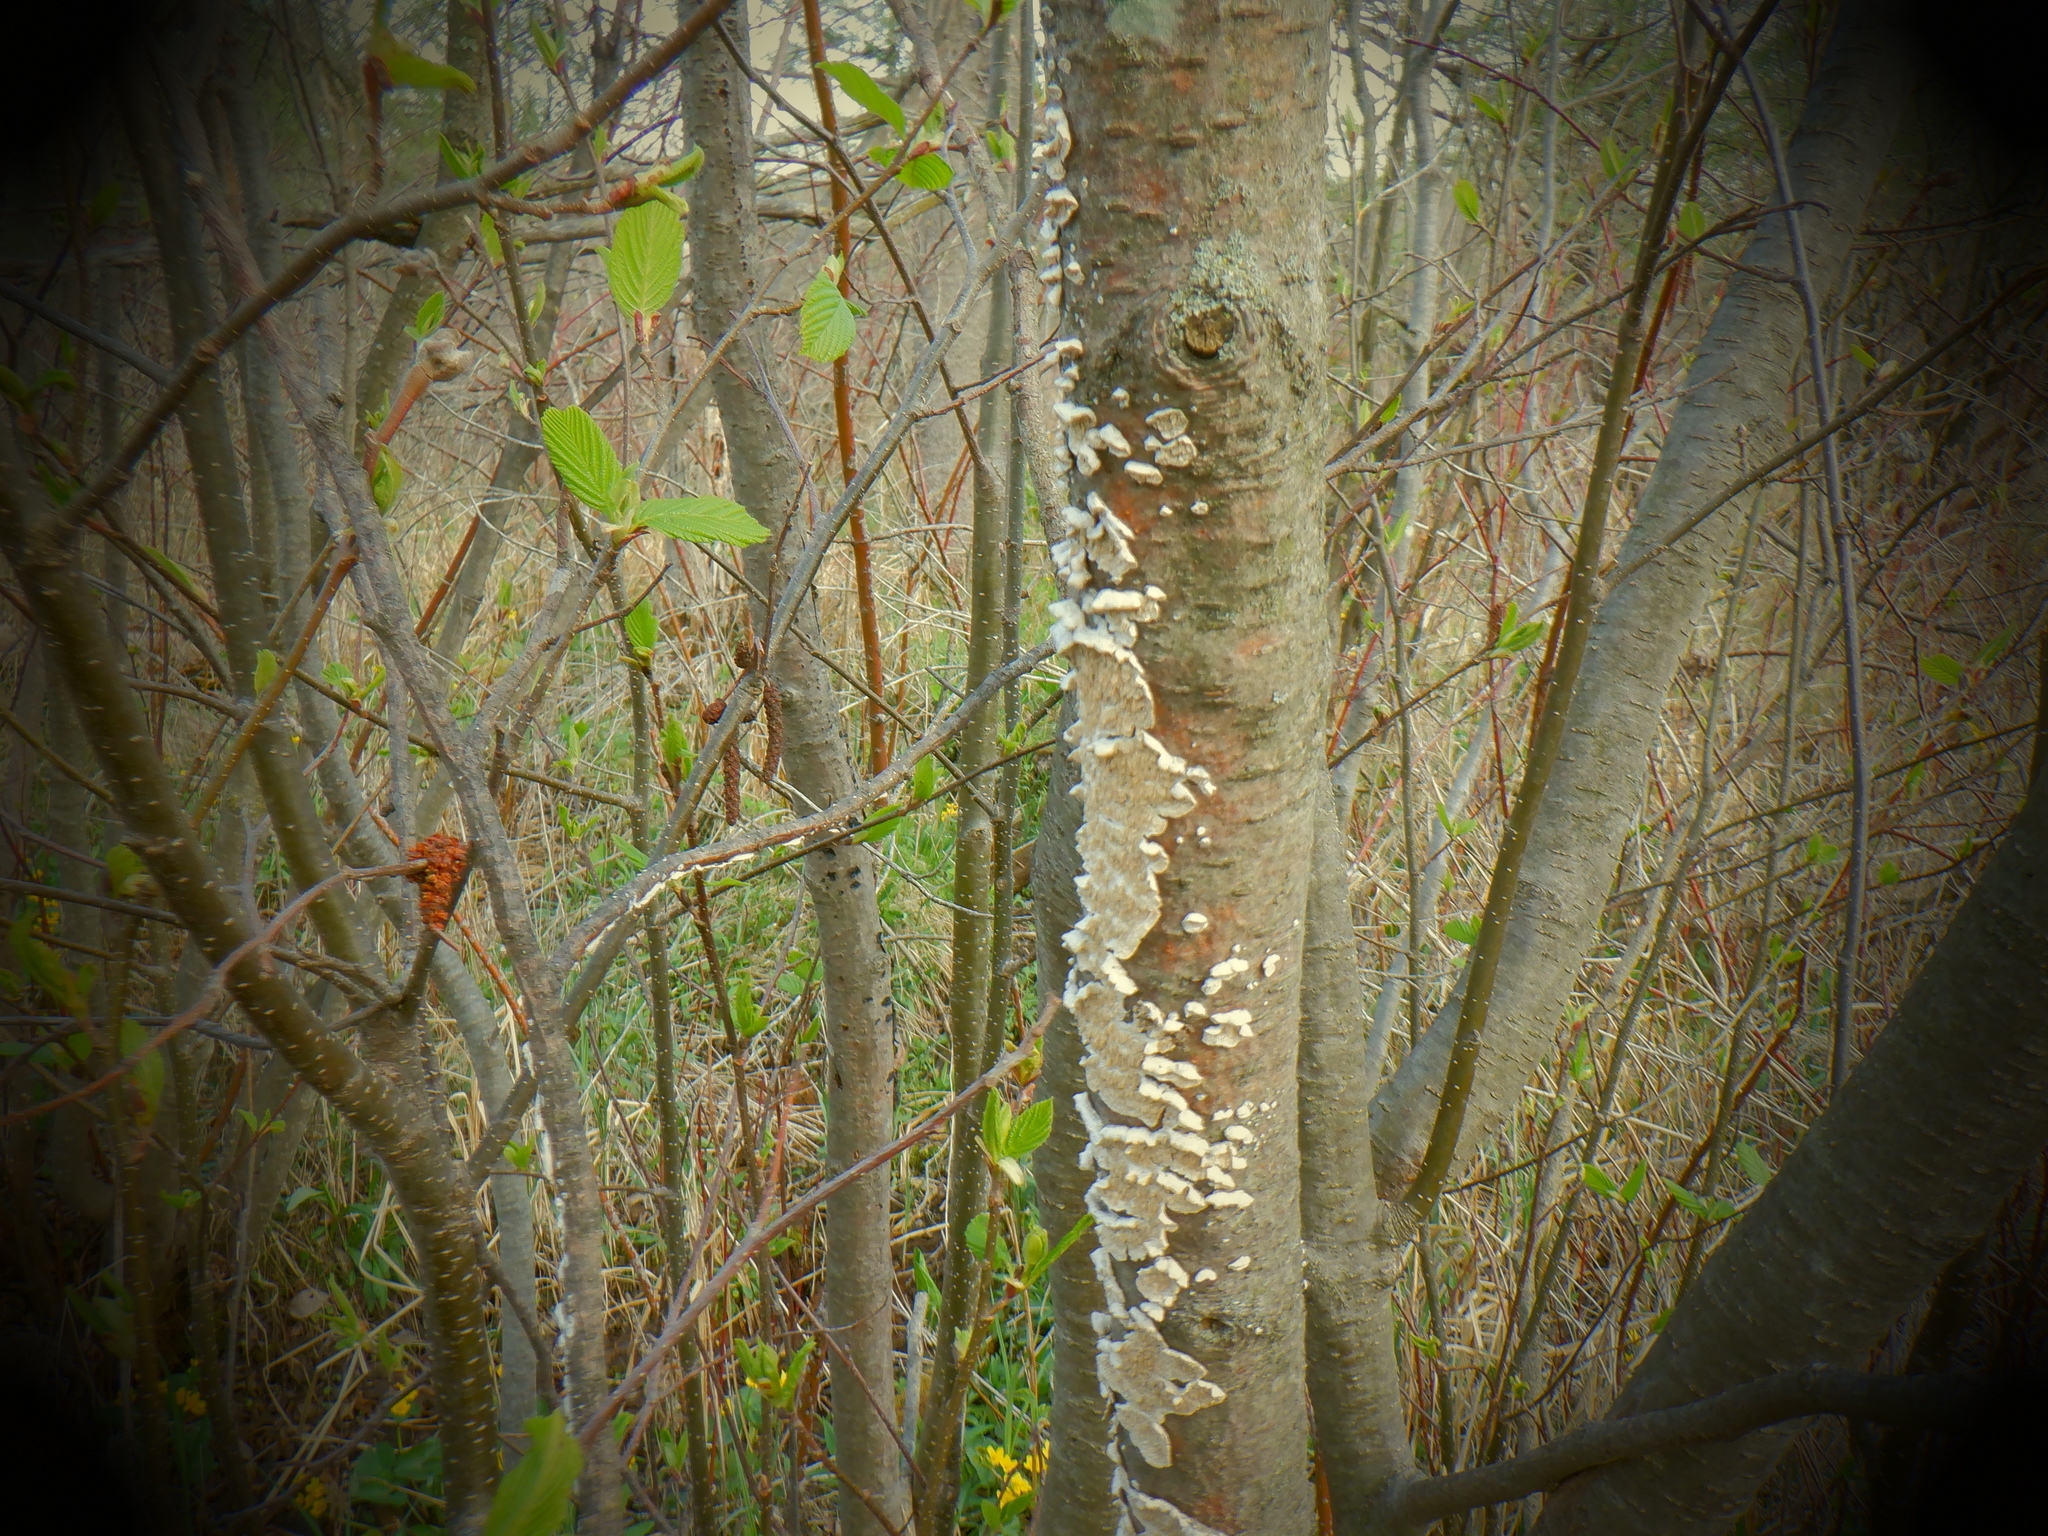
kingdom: Fungi
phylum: Basidiomycota
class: Agaricomycetes
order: Polyporales
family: Irpicaceae
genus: Irpex
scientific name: Irpex lacteus
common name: Milk-white toothed polypore
